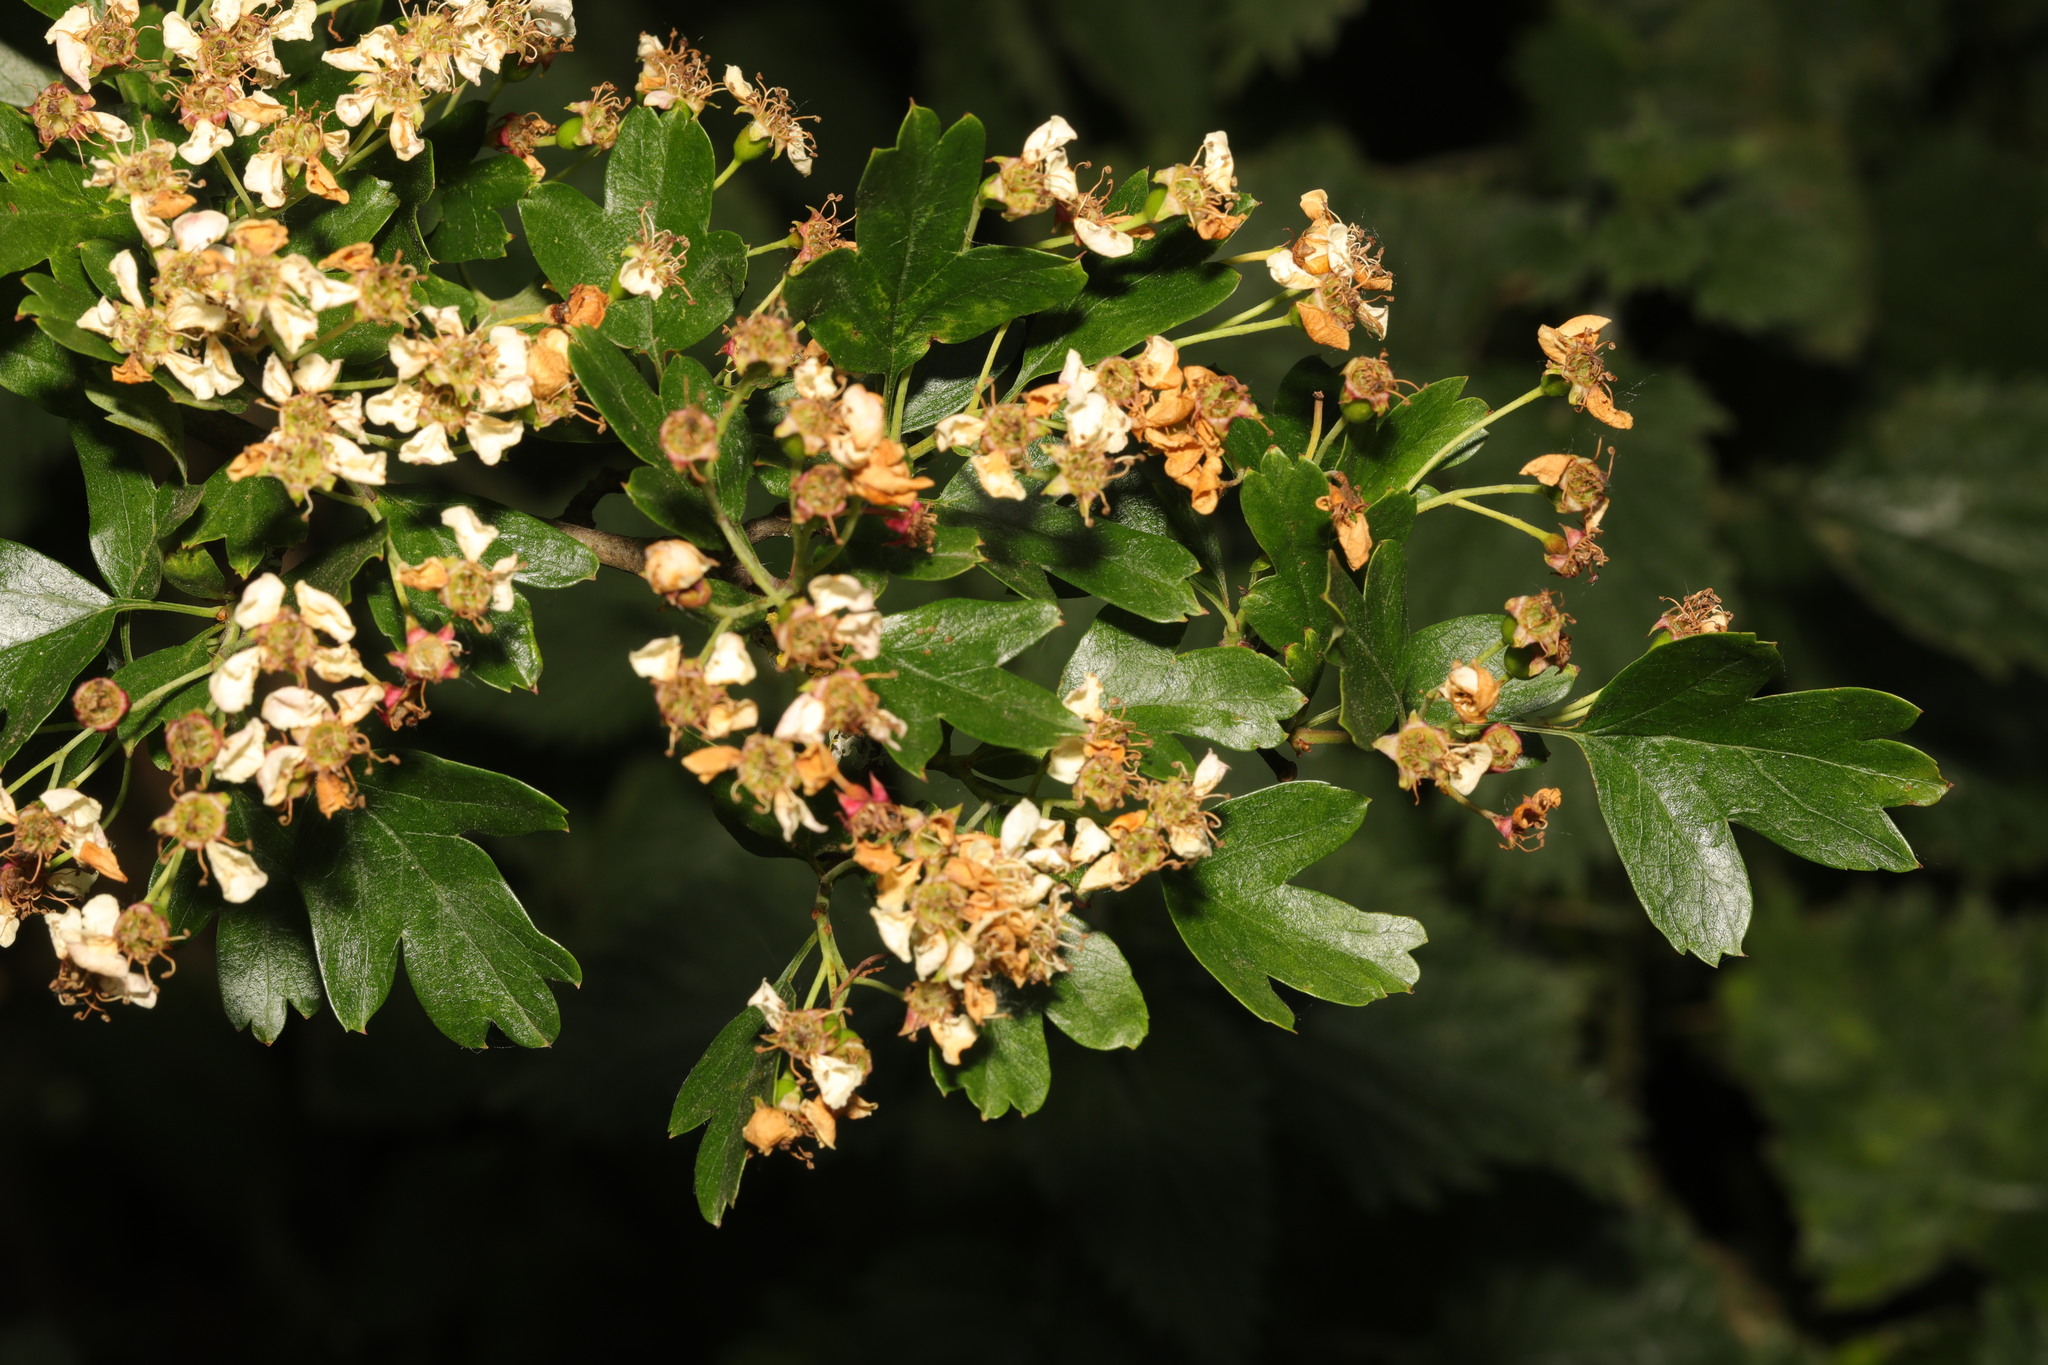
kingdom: Plantae
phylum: Tracheophyta
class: Magnoliopsida
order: Rosales
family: Rosaceae
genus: Crataegus
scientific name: Crataegus monogyna
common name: Hawthorn
